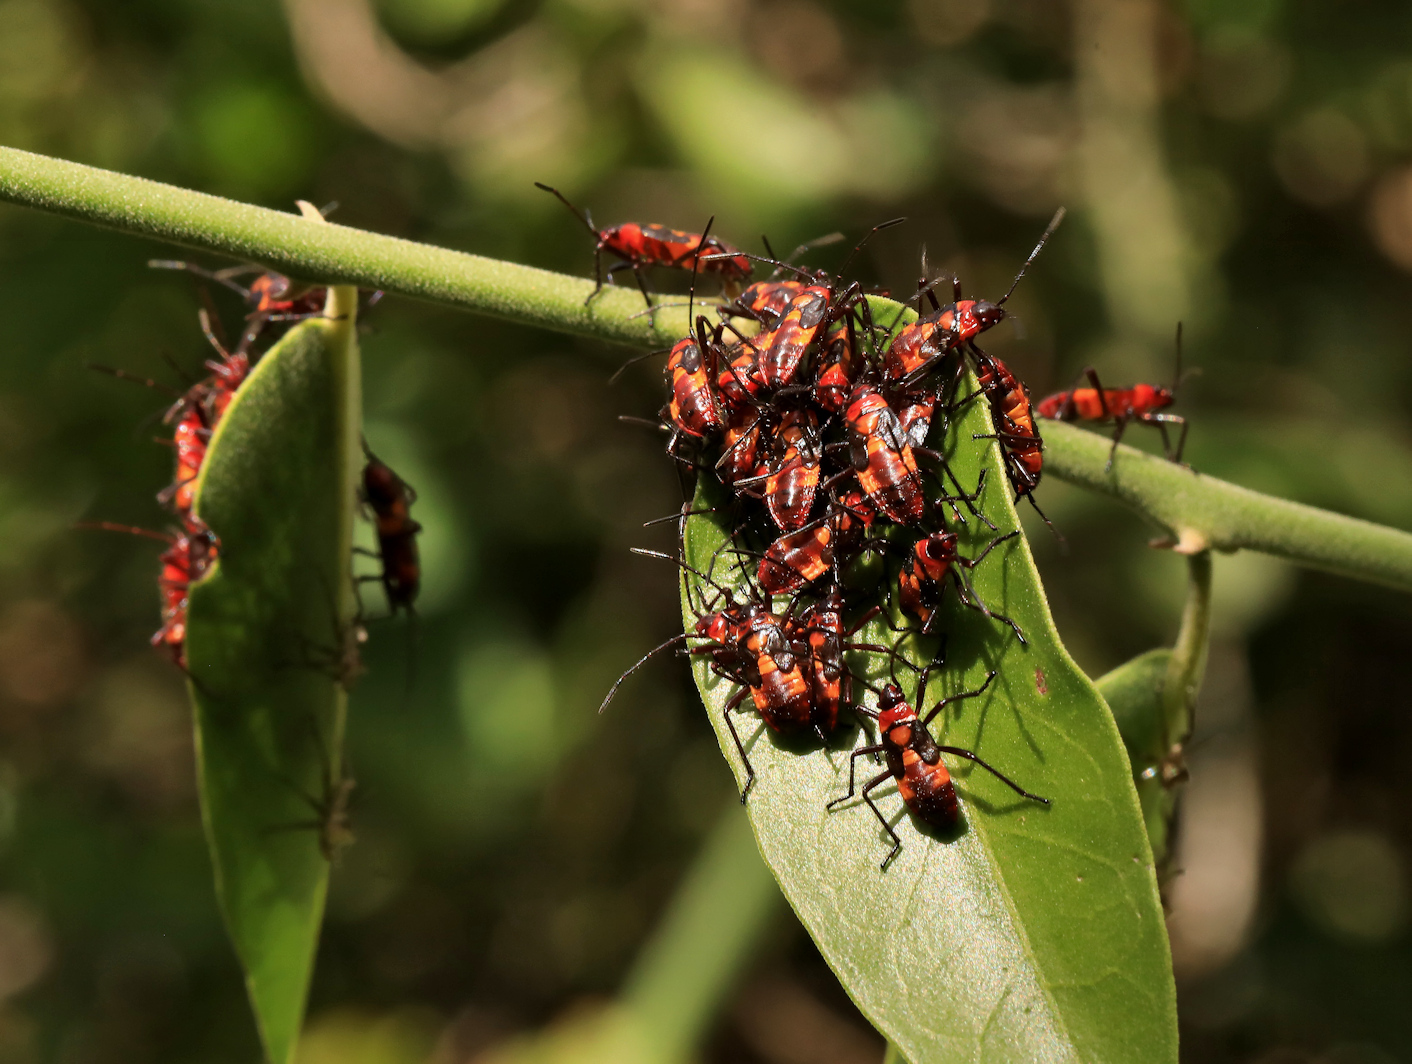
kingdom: Animalia
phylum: Arthropoda
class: Insecta
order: Hemiptera
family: Lygaeidae
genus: Oncopeltus
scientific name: Oncopeltus famelicus
